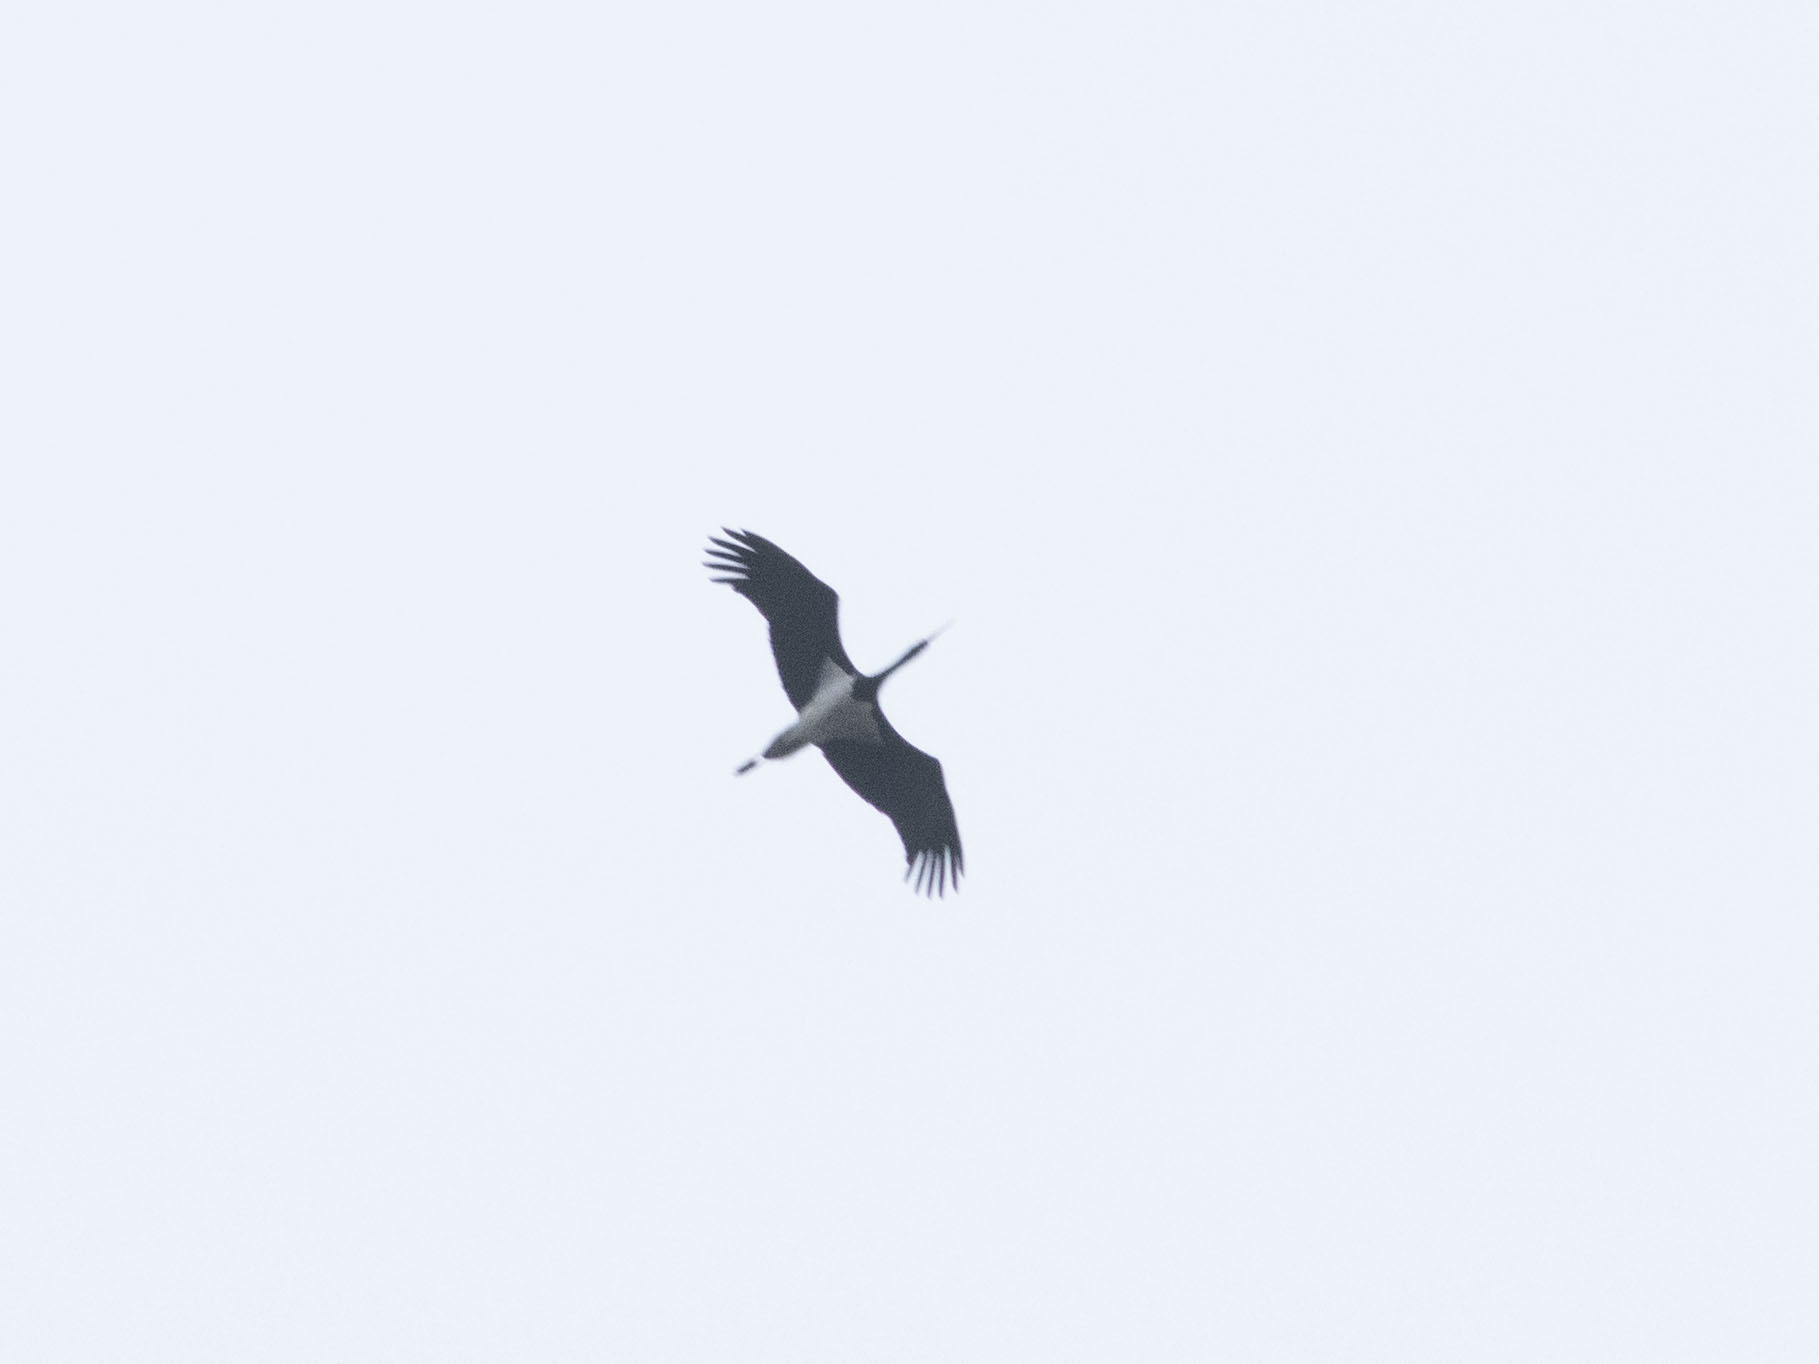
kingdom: Animalia
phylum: Chordata
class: Aves
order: Ciconiiformes
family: Ciconiidae
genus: Ciconia
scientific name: Ciconia nigra
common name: Black stork
